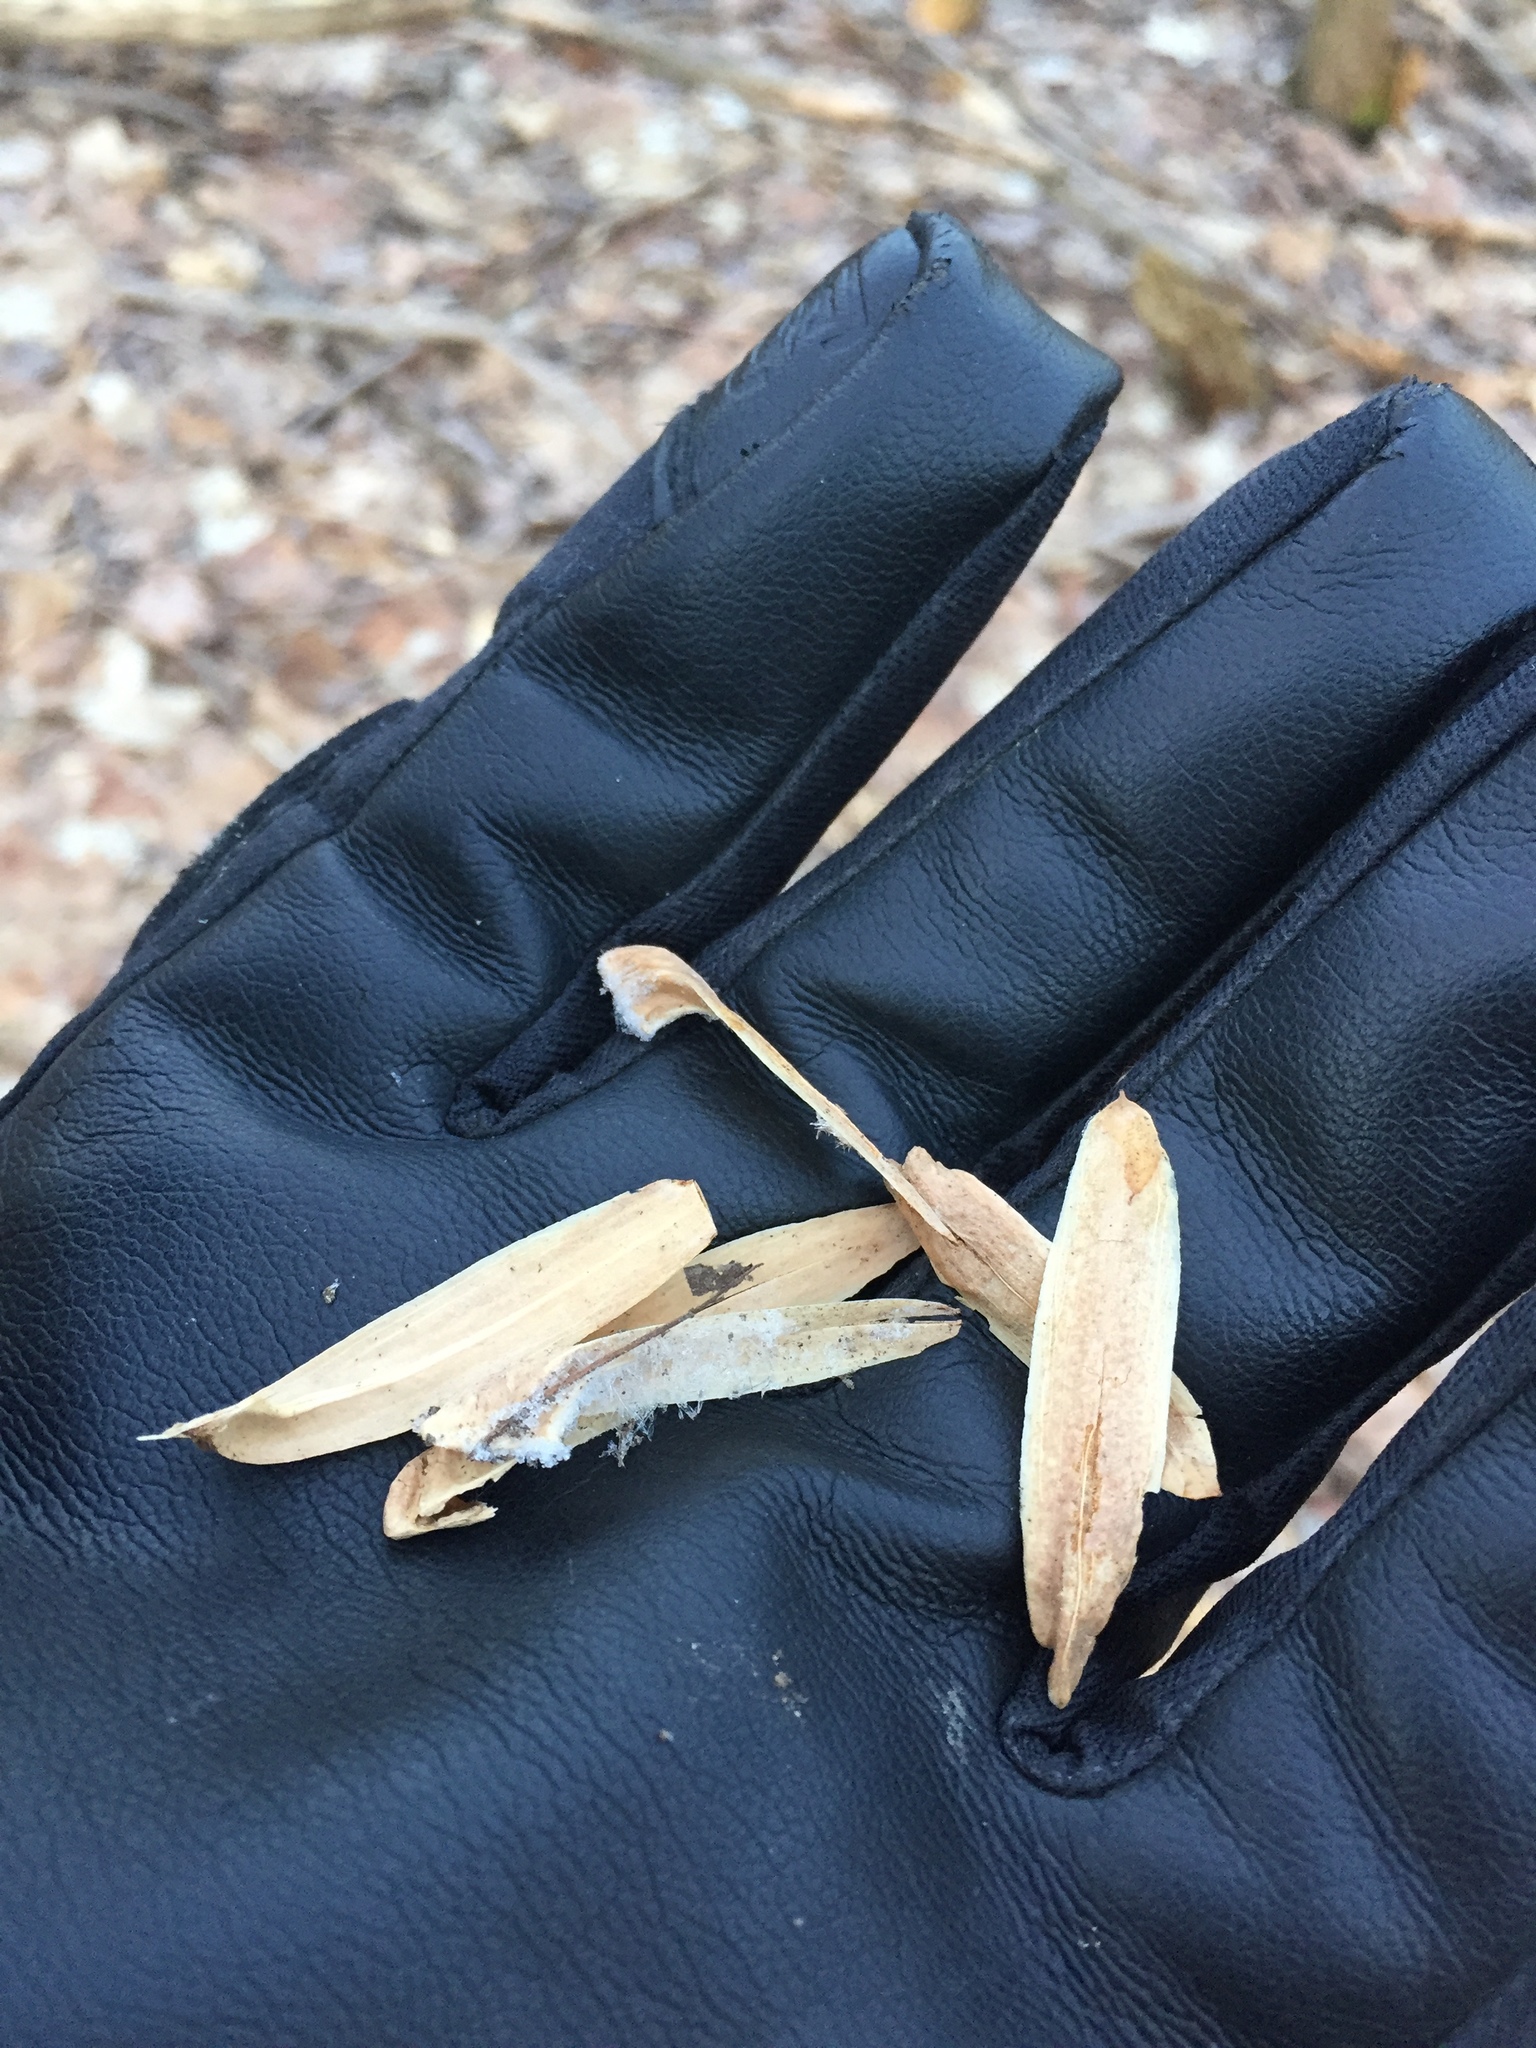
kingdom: Plantae
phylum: Tracheophyta
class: Magnoliopsida
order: Magnoliales
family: Magnoliaceae
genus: Liriodendron
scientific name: Liriodendron tulipifera
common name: Tulip tree
